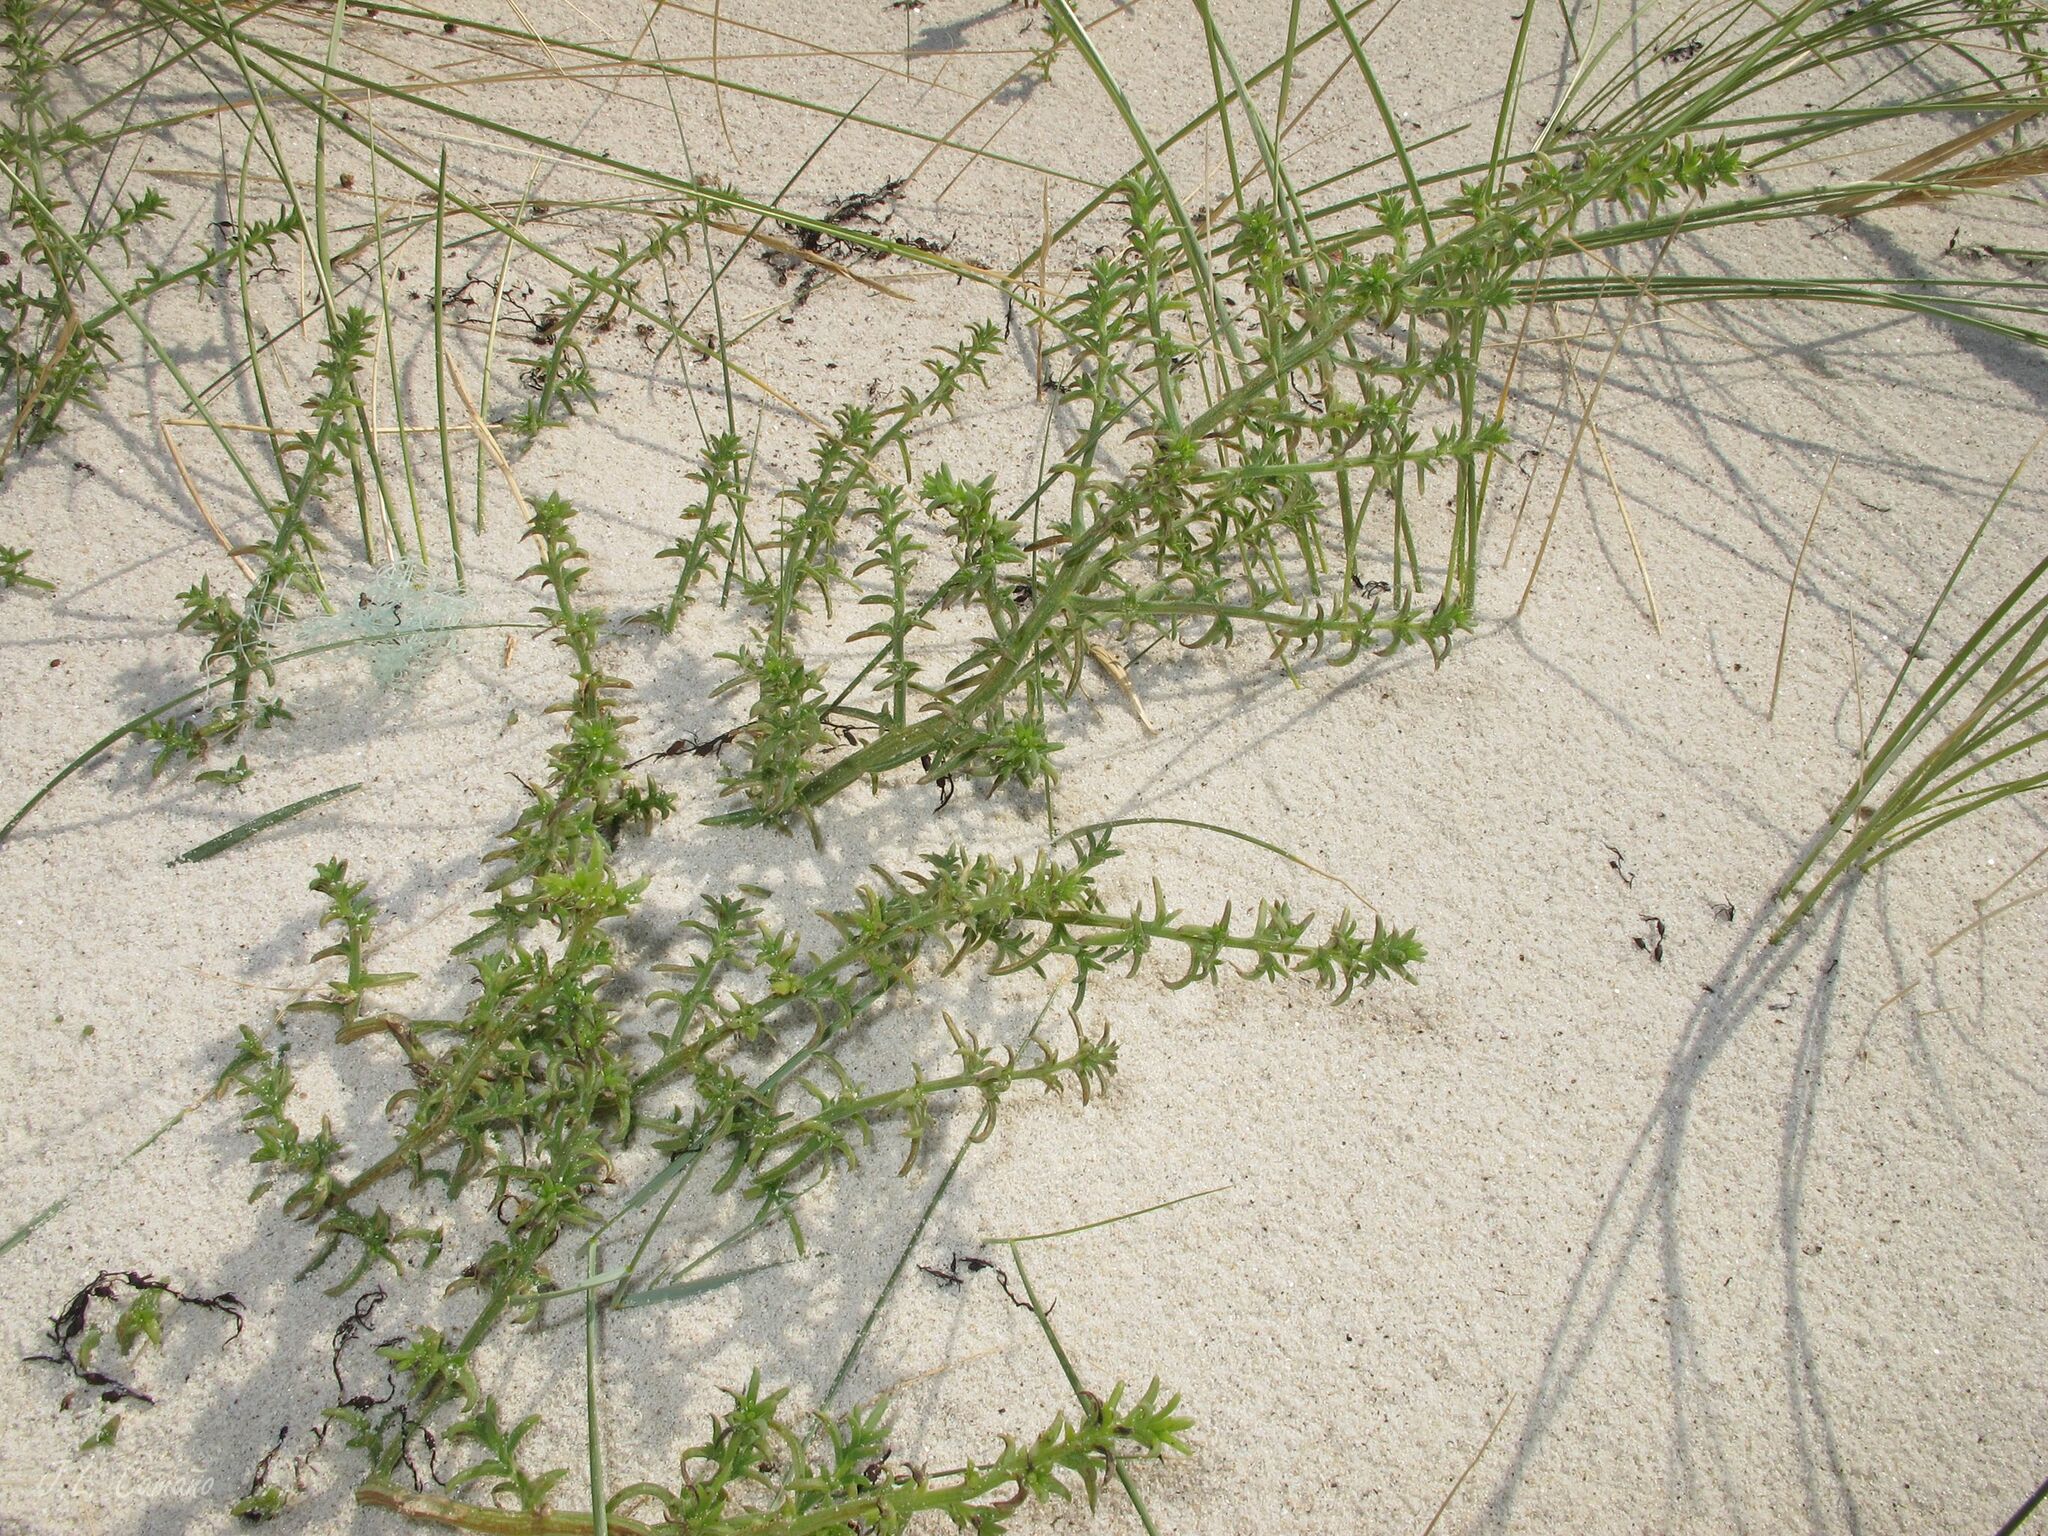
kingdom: Plantae
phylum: Tracheophyta
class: Magnoliopsida
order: Caryophyllales
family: Amaranthaceae
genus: Salsola
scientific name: Salsola kali
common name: Saltwort
